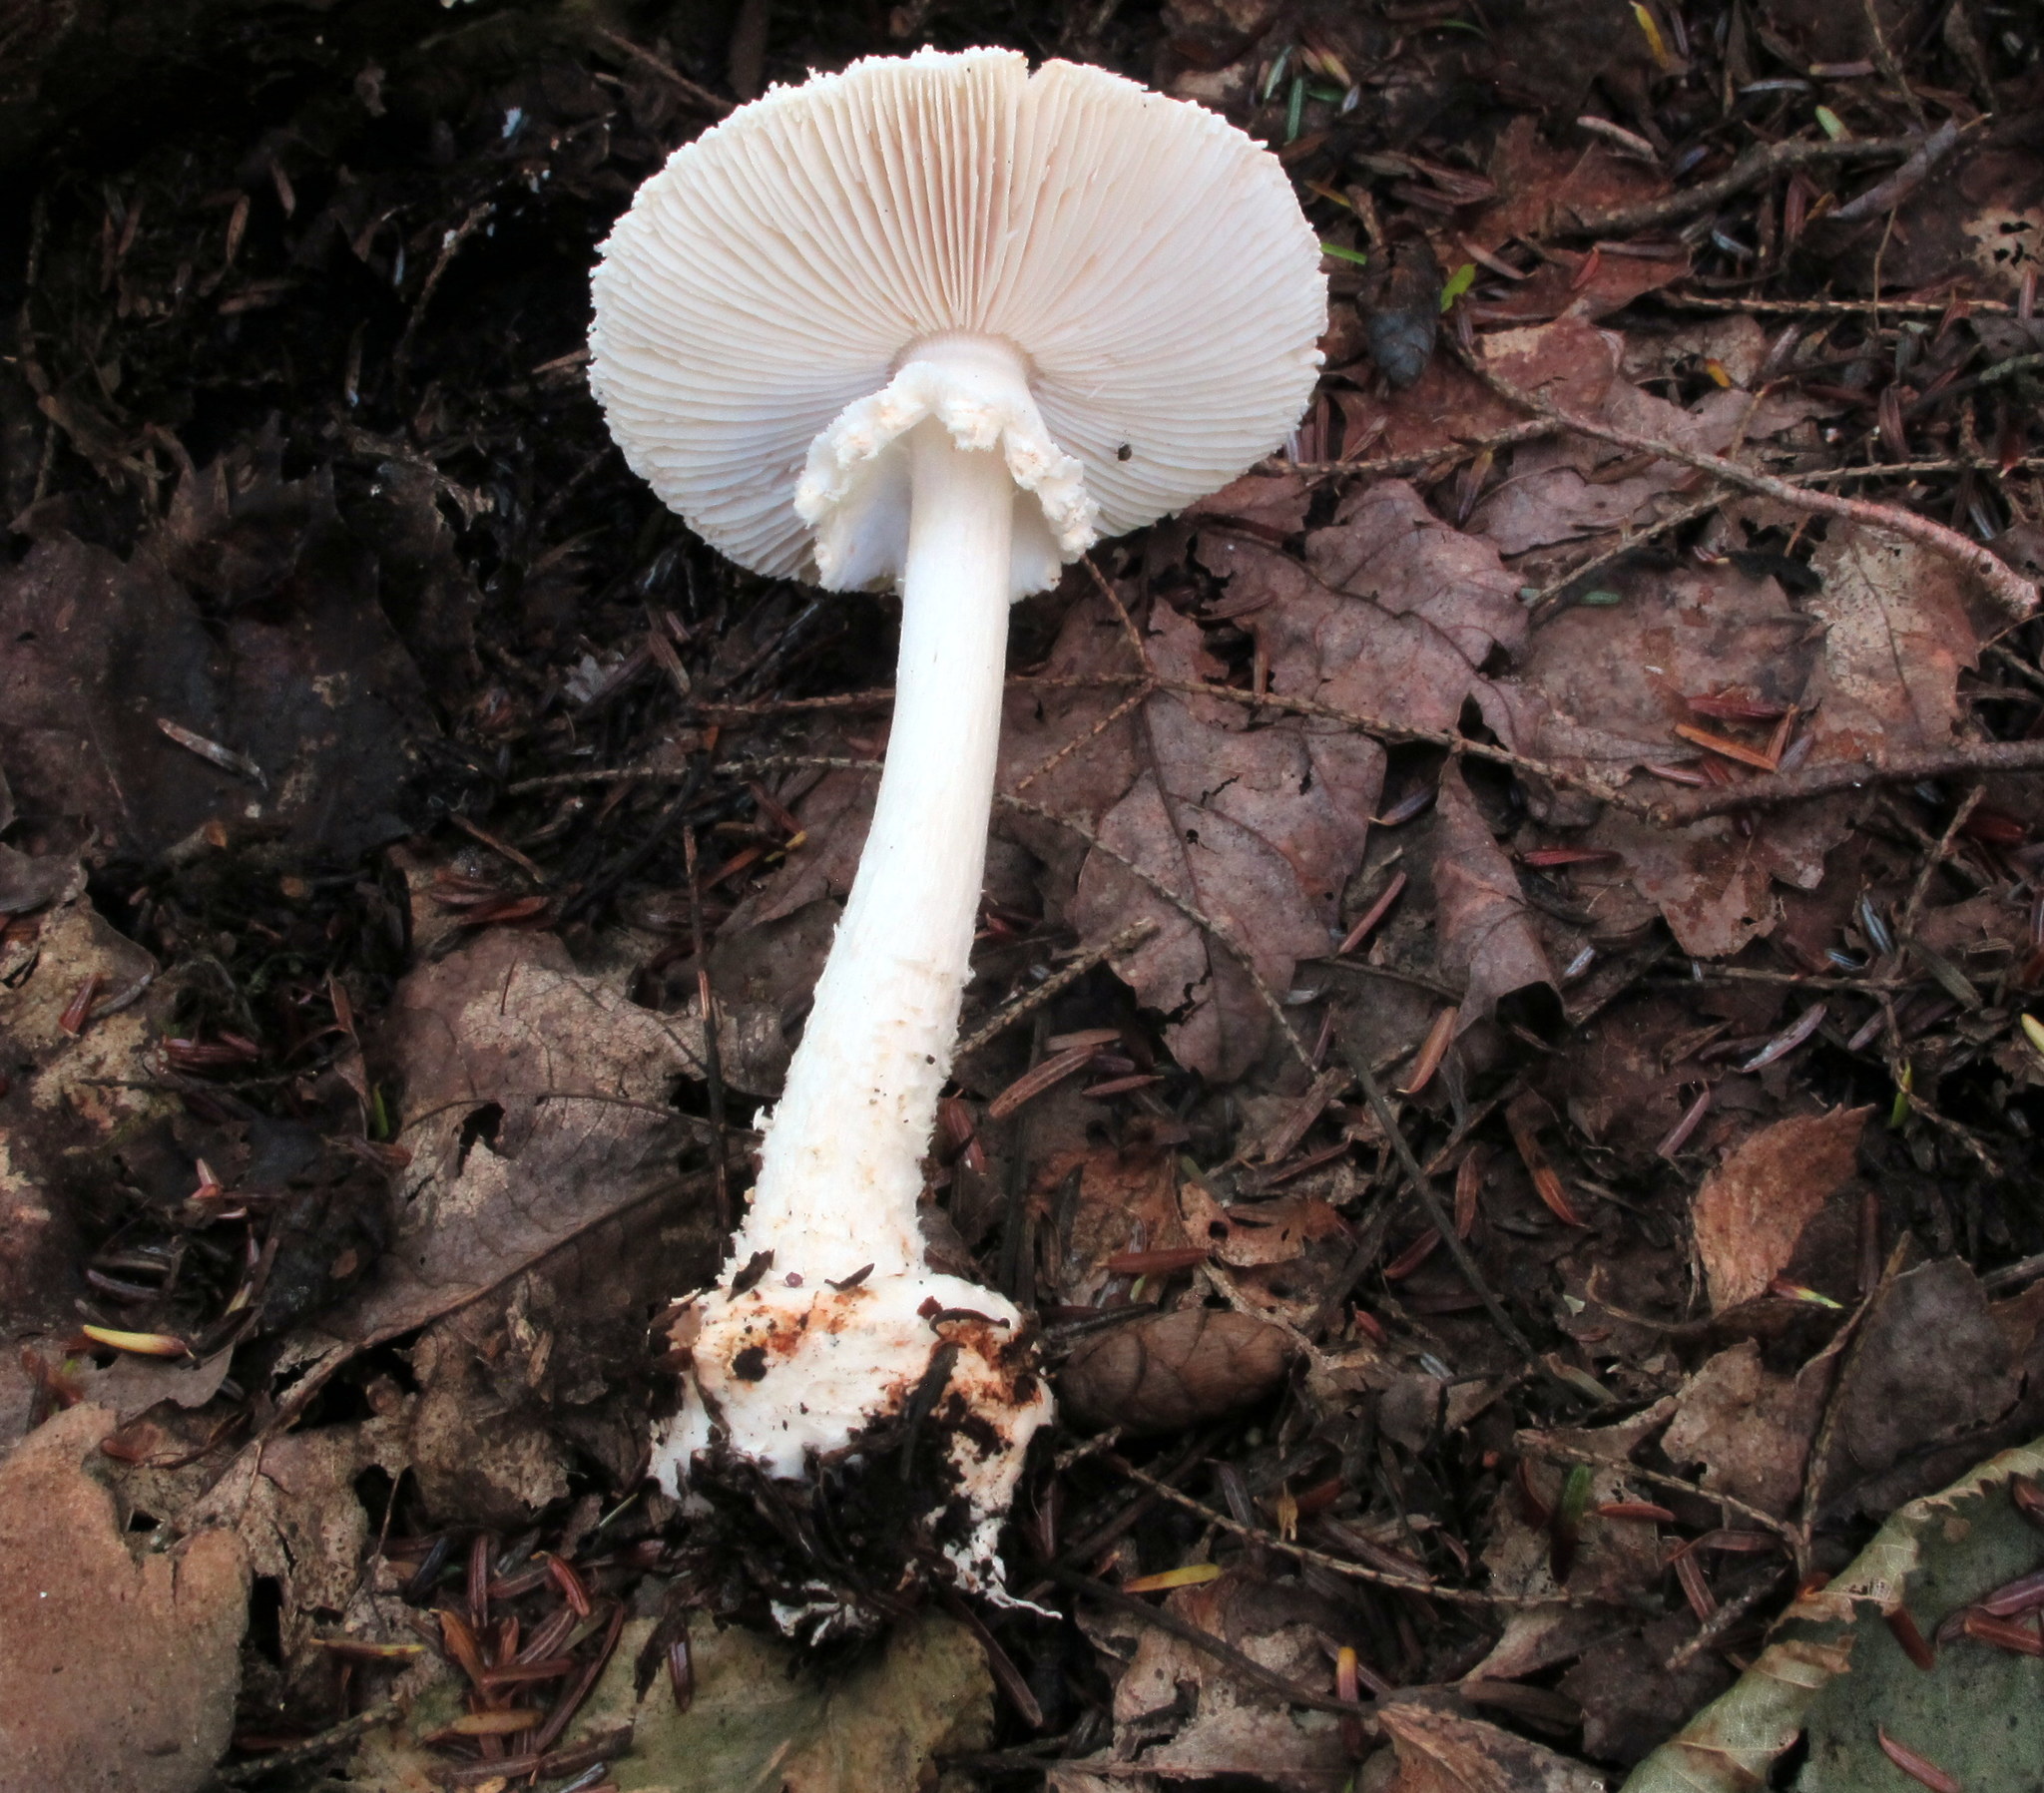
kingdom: Fungi
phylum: Basidiomycota
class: Agaricomycetes
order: Agaricales
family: Amanitaceae
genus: Amanita
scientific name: Amanita abrupta
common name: American abrupt-bulbed lepidella
